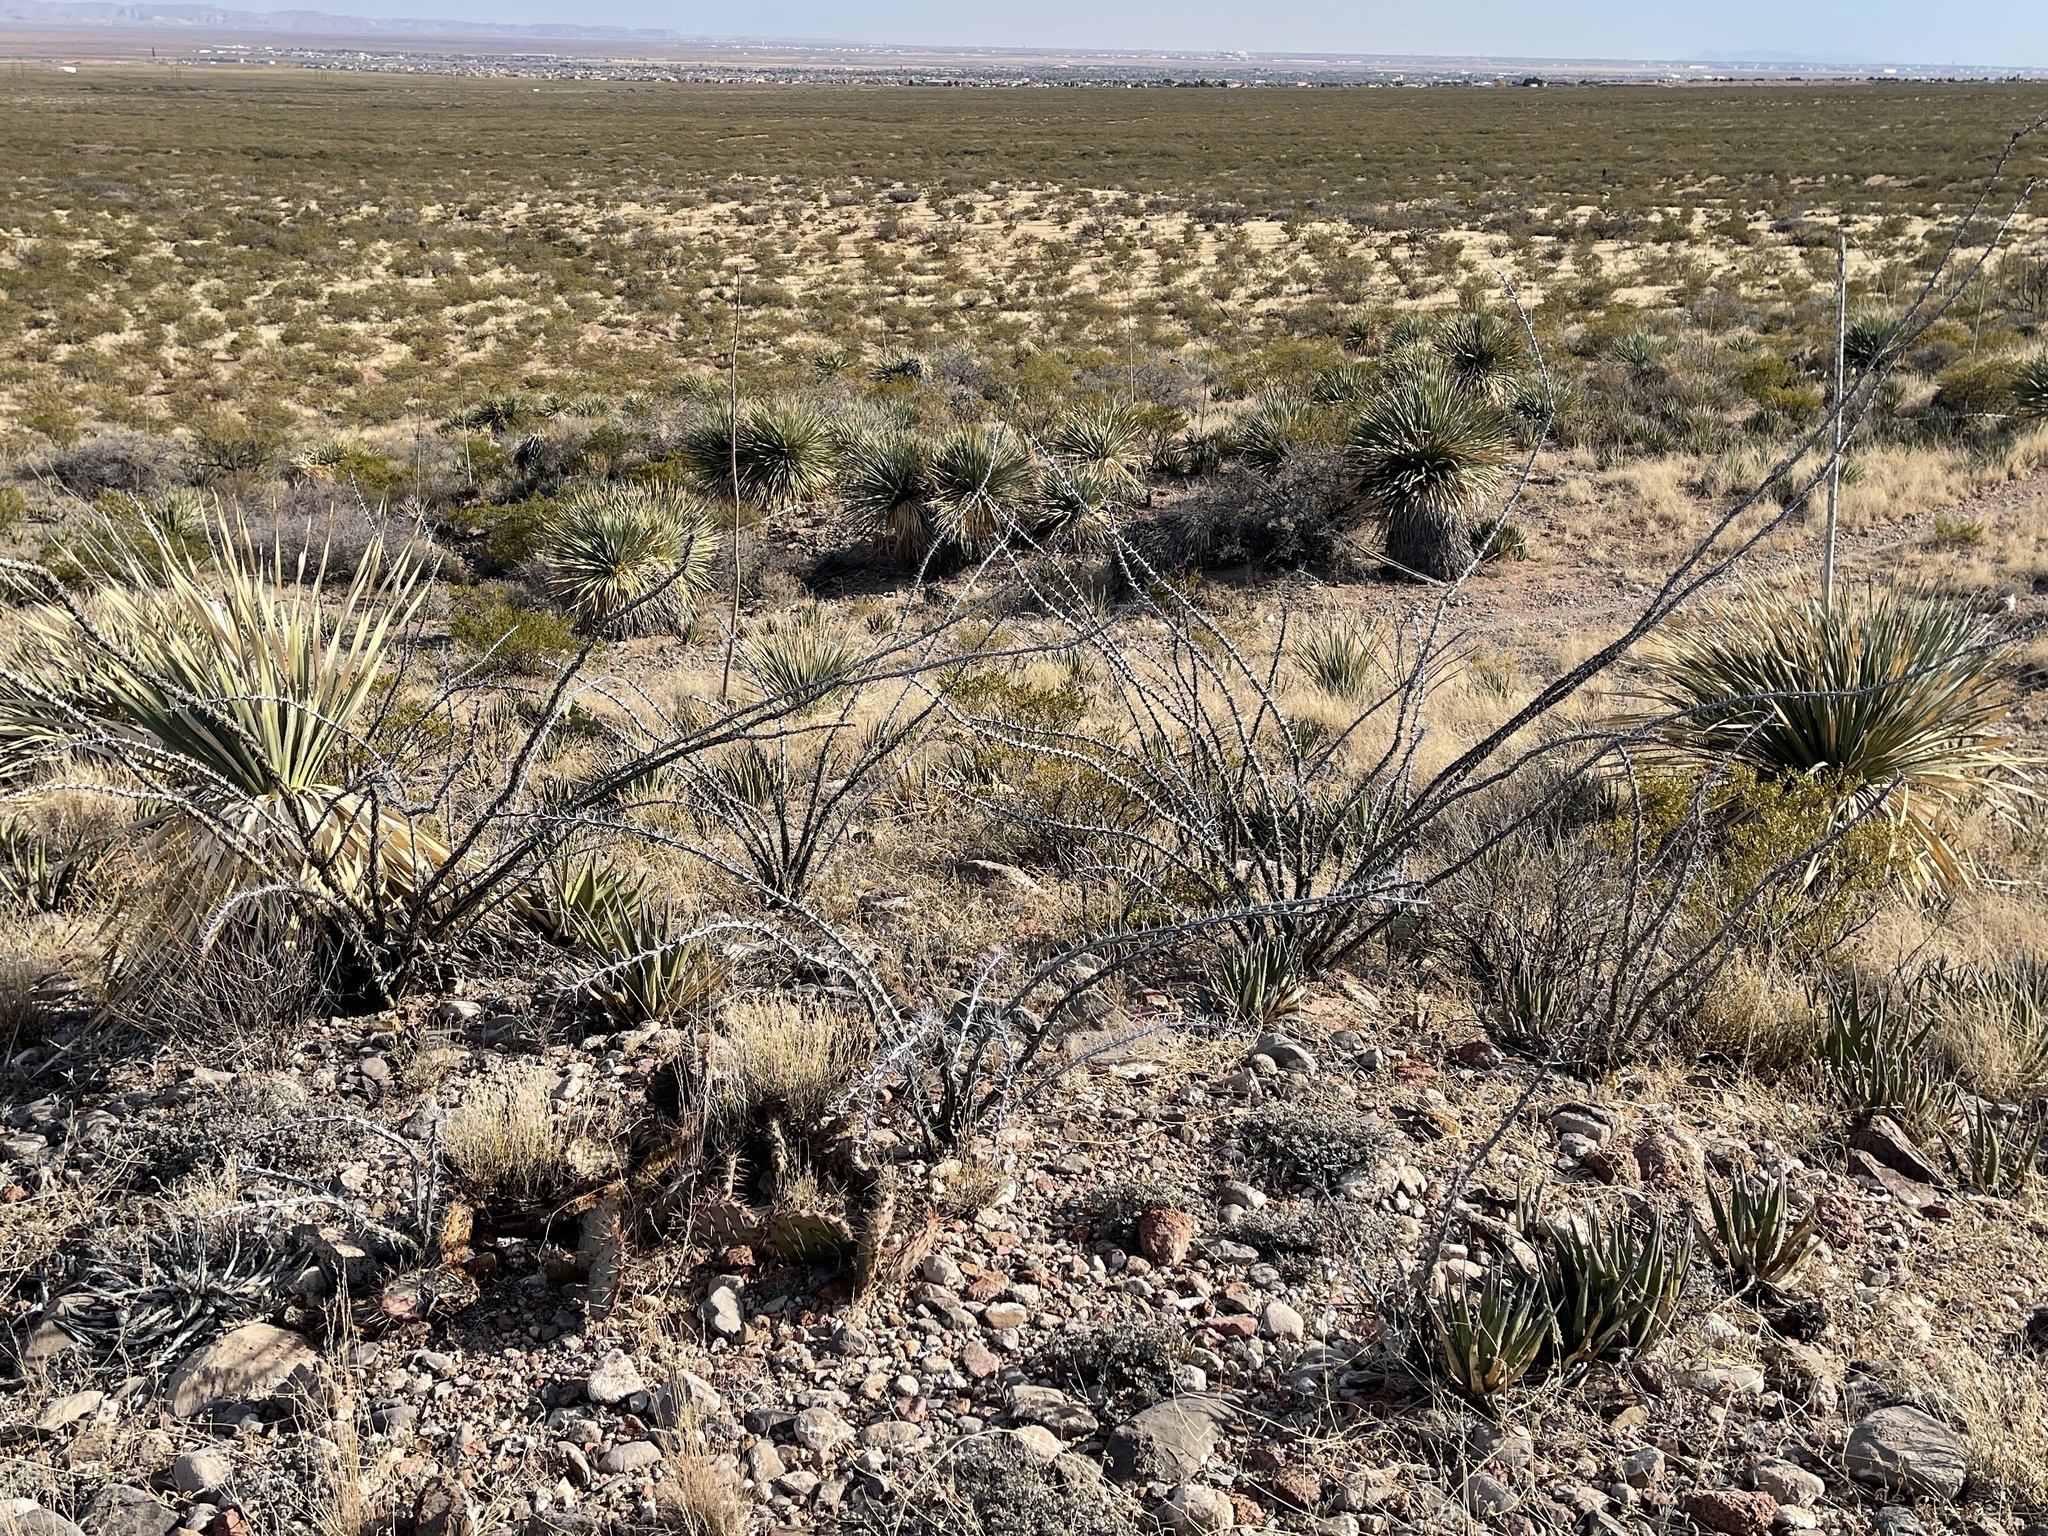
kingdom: Plantae
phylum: Tracheophyta
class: Magnoliopsida
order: Ericales
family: Fouquieriaceae
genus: Fouquieria
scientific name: Fouquieria splendens
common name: Vine-cactus
